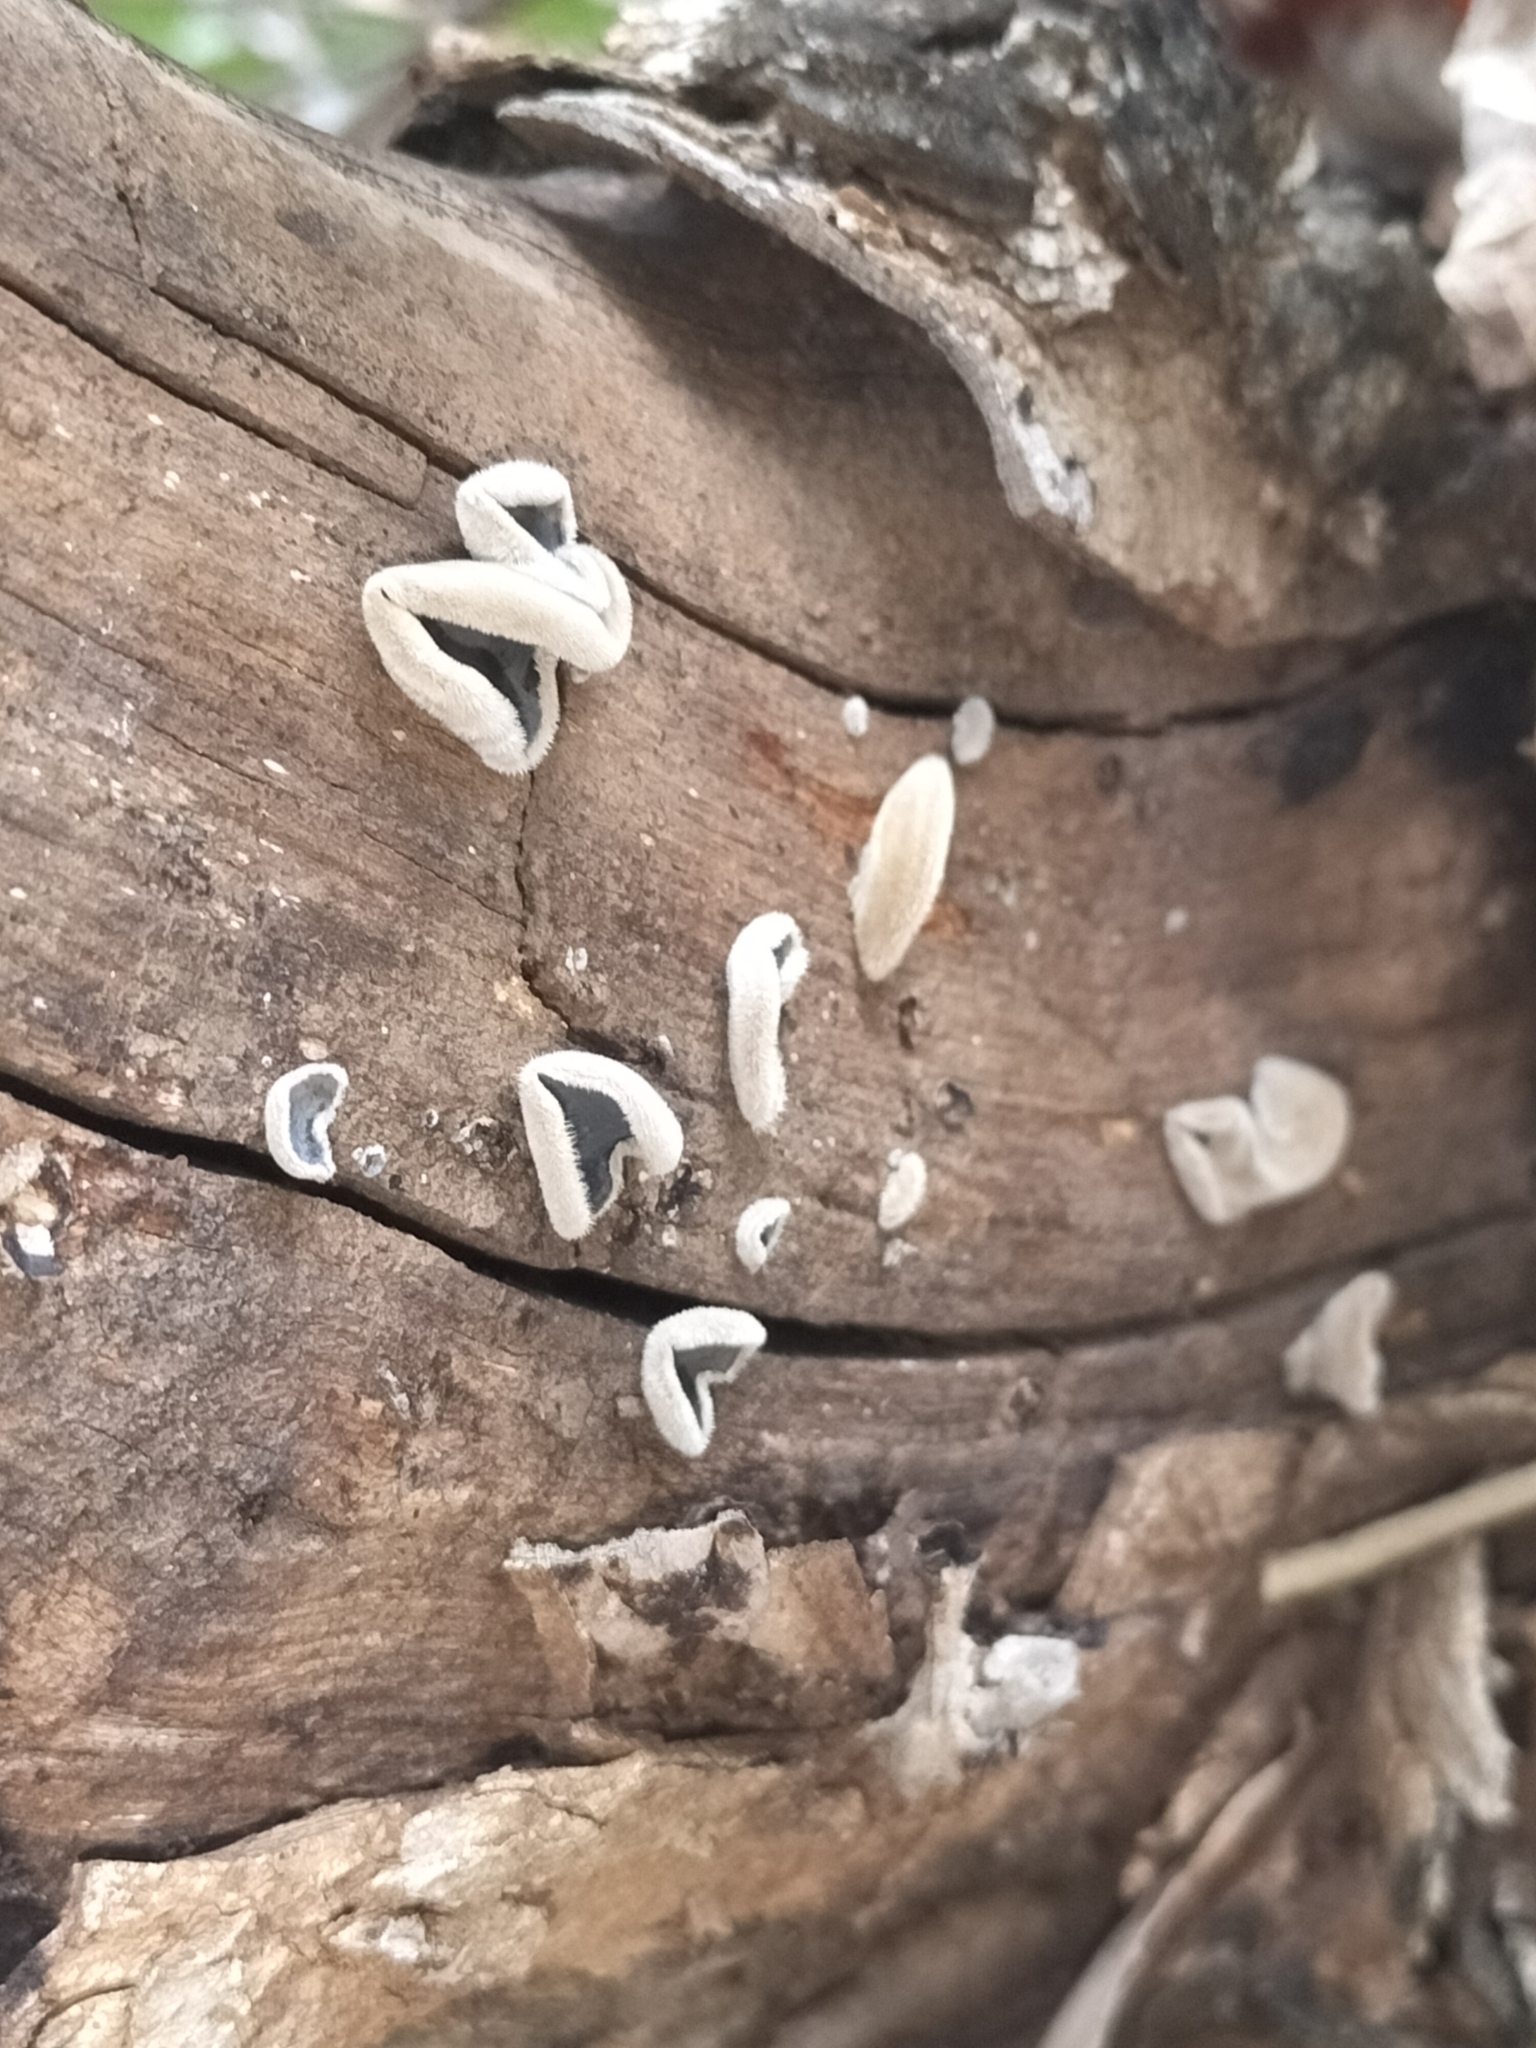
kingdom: Fungi
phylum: Basidiomycota
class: Agaricomycetes
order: Auriculariales
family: Auriculariaceae
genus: Auricularia
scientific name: Auricularia cornea
